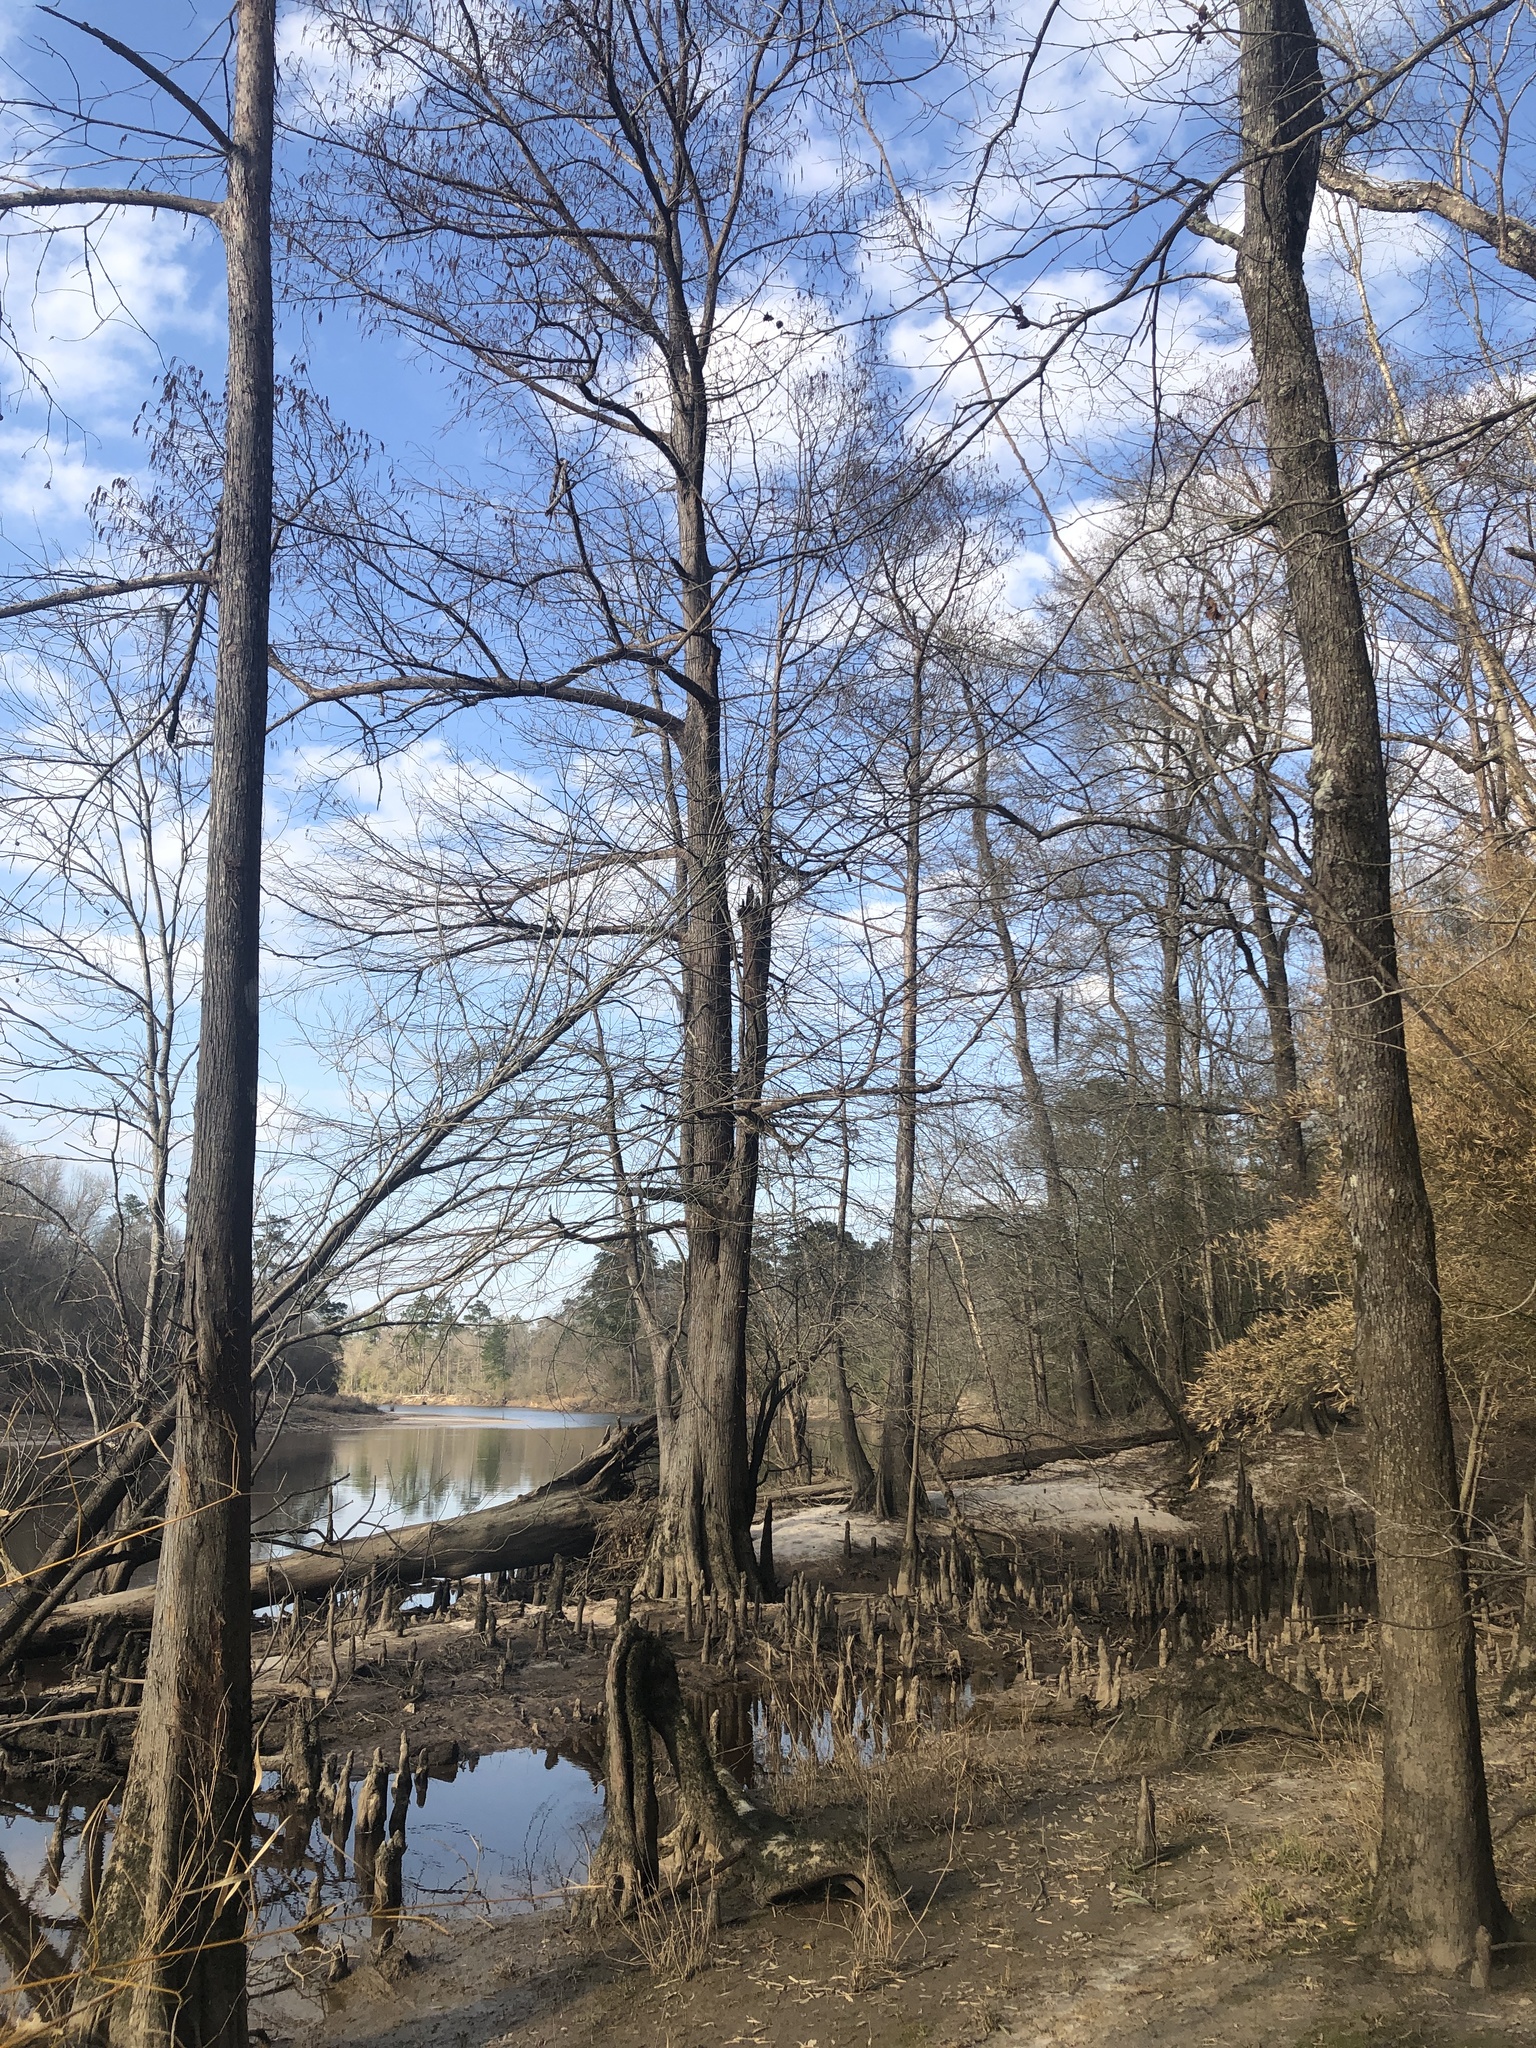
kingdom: Plantae
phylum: Tracheophyta
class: Pinopsida
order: Pinales
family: Cupressaceae
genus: Taxodium
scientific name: Taxodium distichum
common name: Bald cypress
